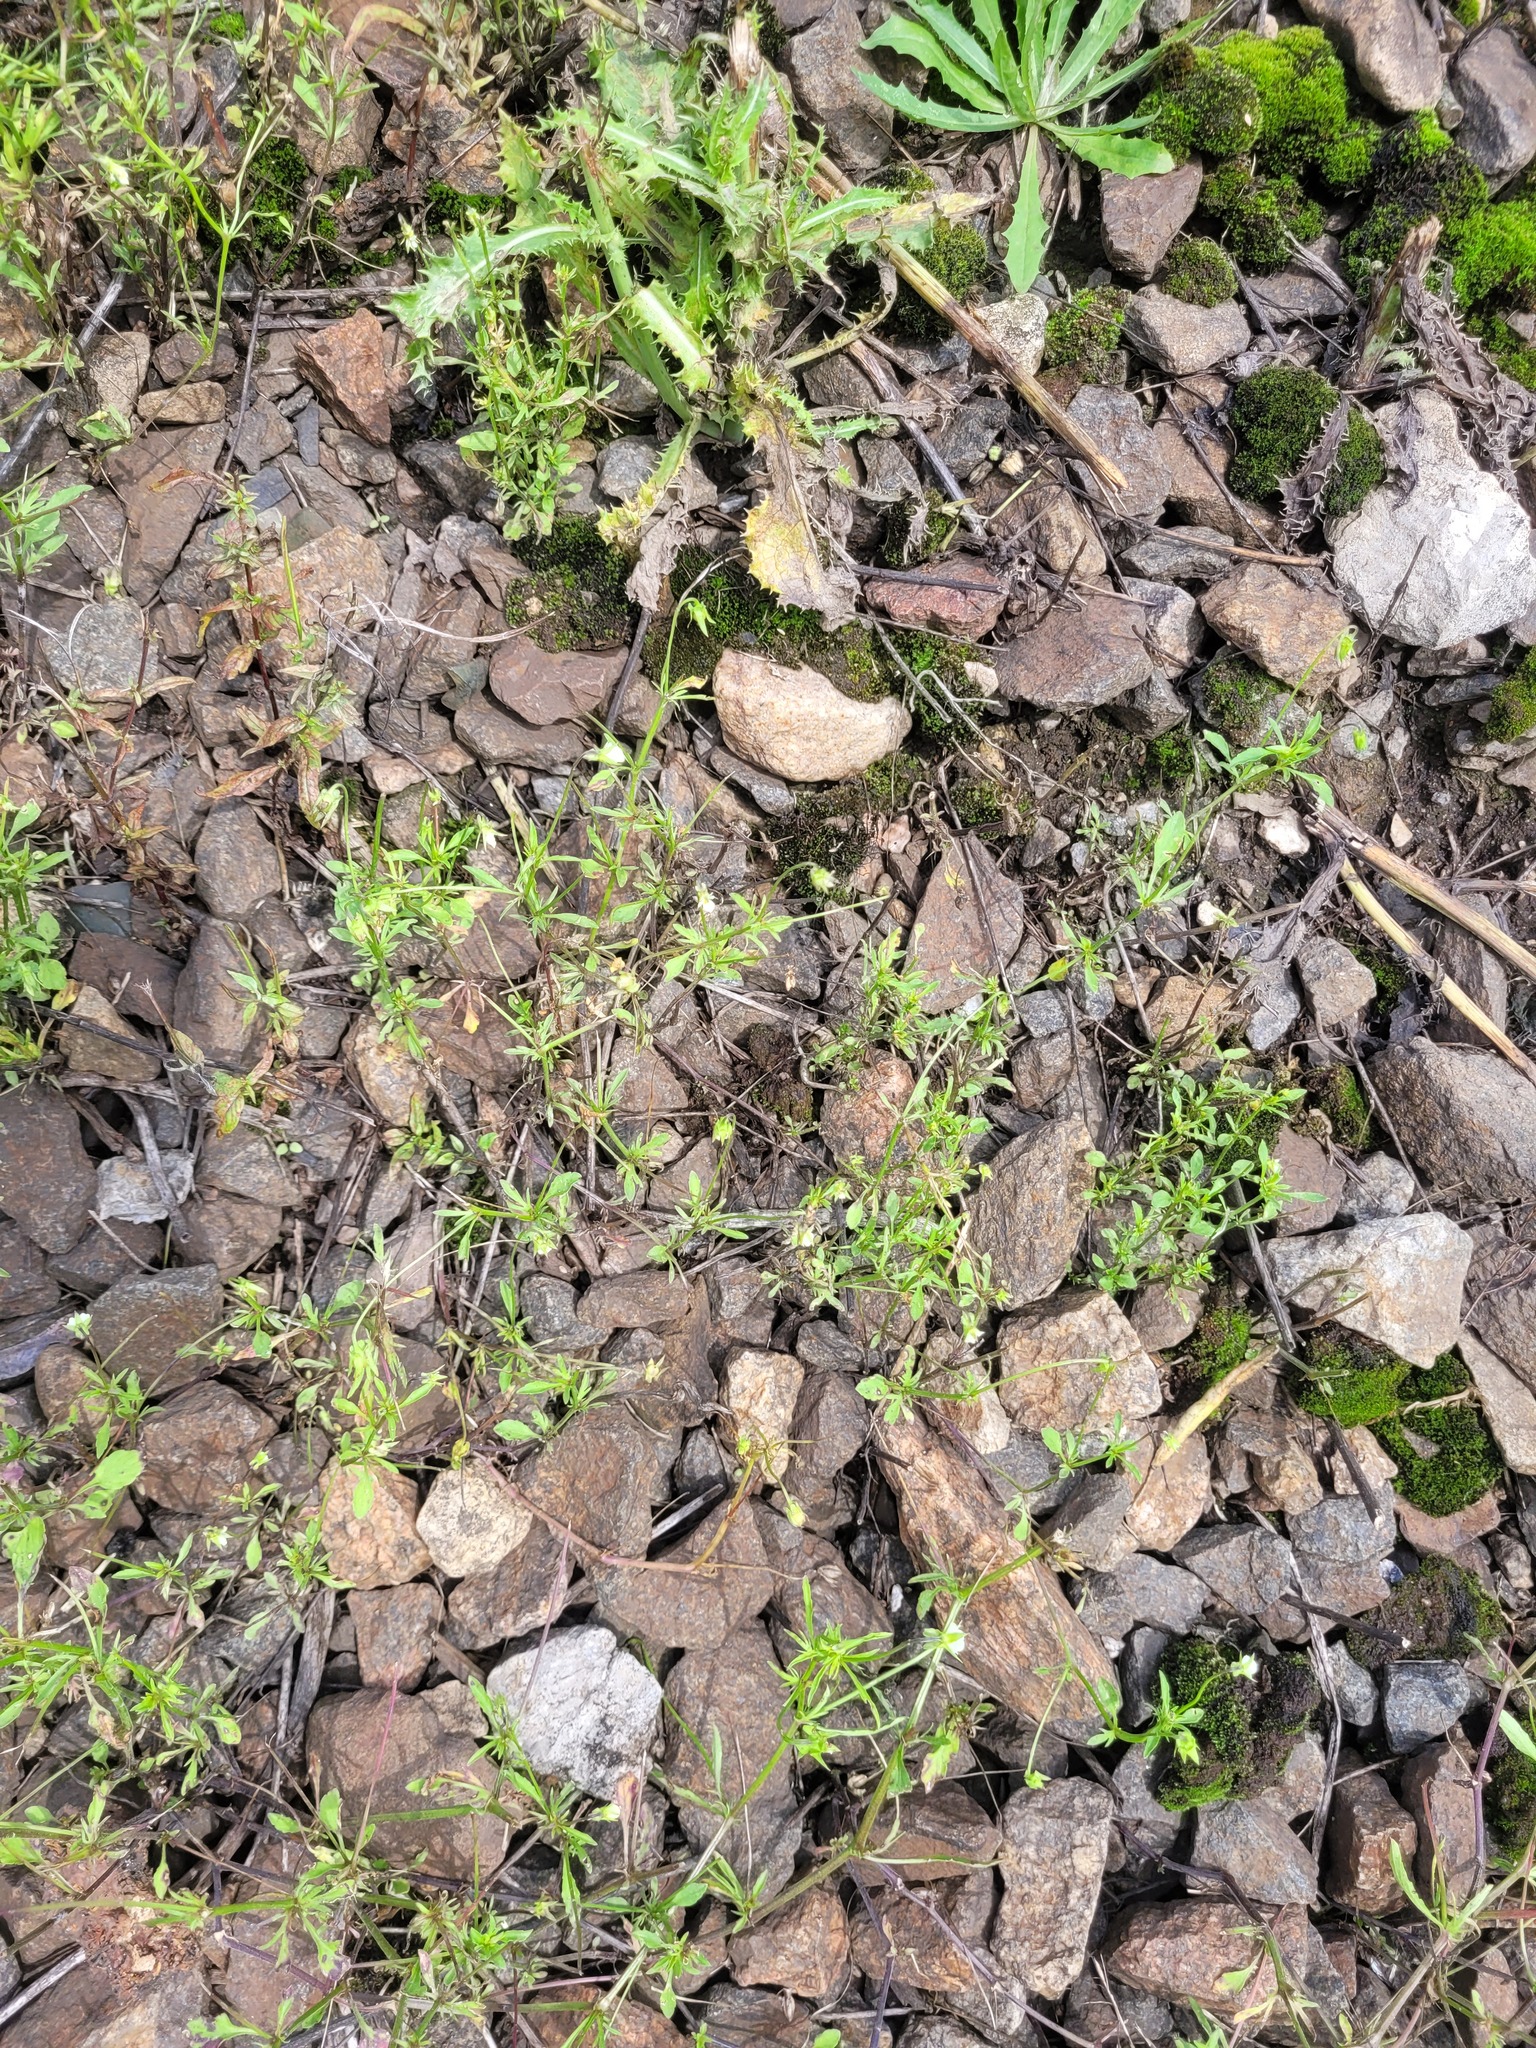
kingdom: Plantae
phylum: Tracheophyta
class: Magnoliopsida
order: Malpighiales
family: Violaceae
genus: Viola
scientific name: Viola arvensis
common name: Field pansy
